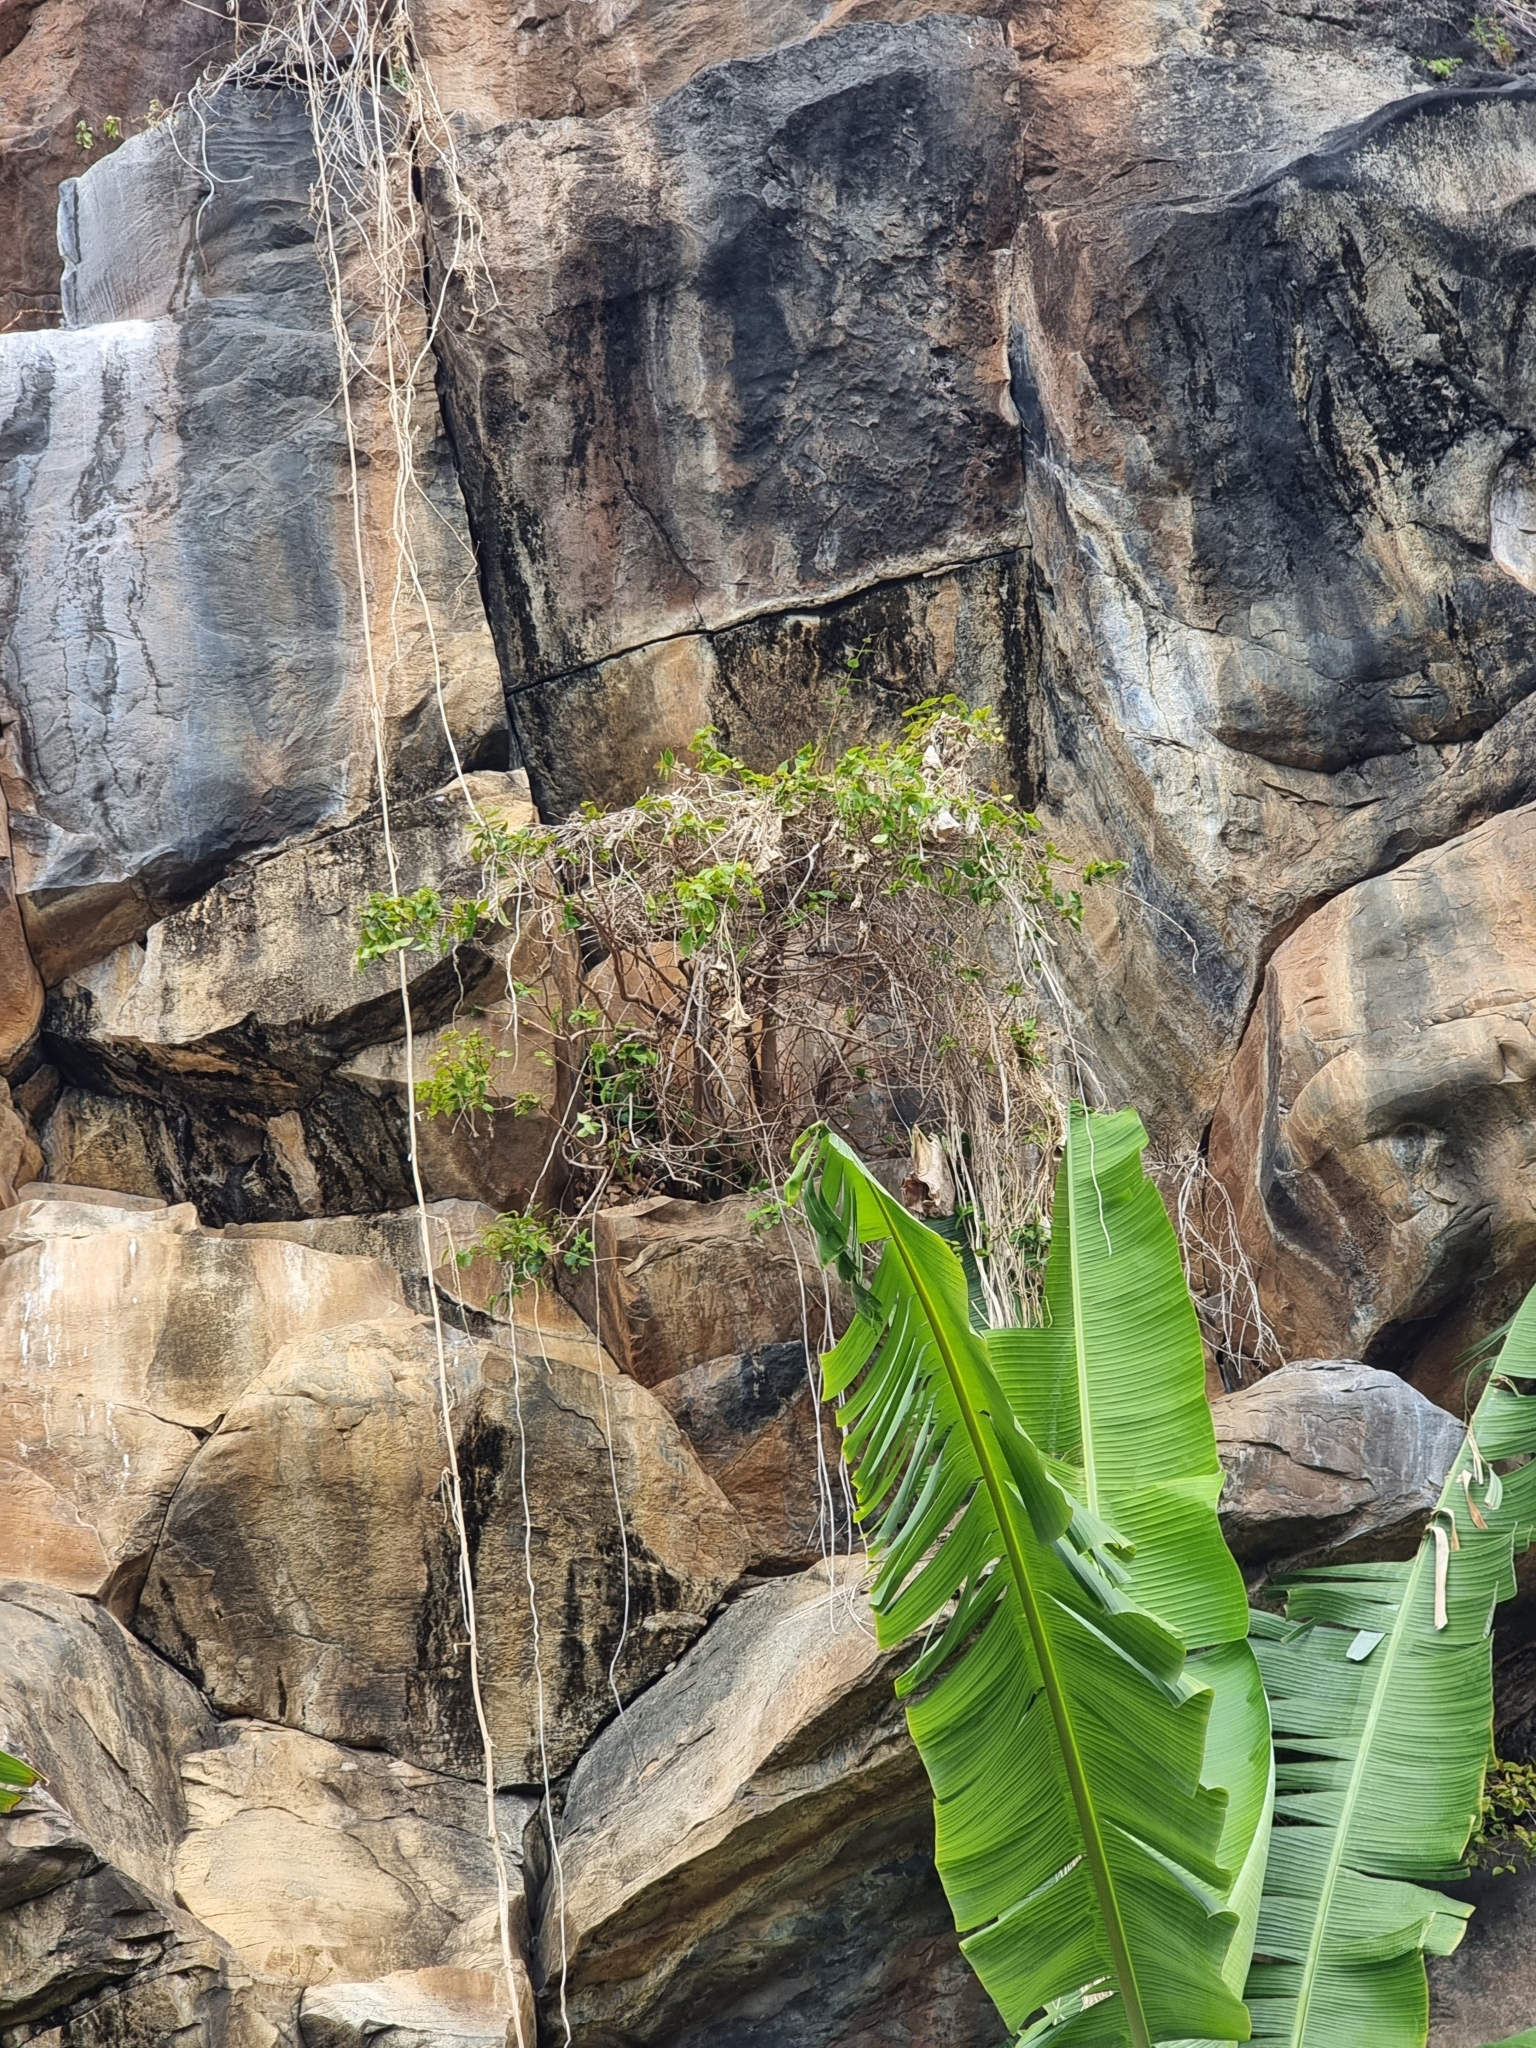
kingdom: Plantae
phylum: Tracheophyta
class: Magnoliopsida
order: Myrtales
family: Myrtaceae
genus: Eugenia
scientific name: Eugenia uniflora
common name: Surinam cherry
